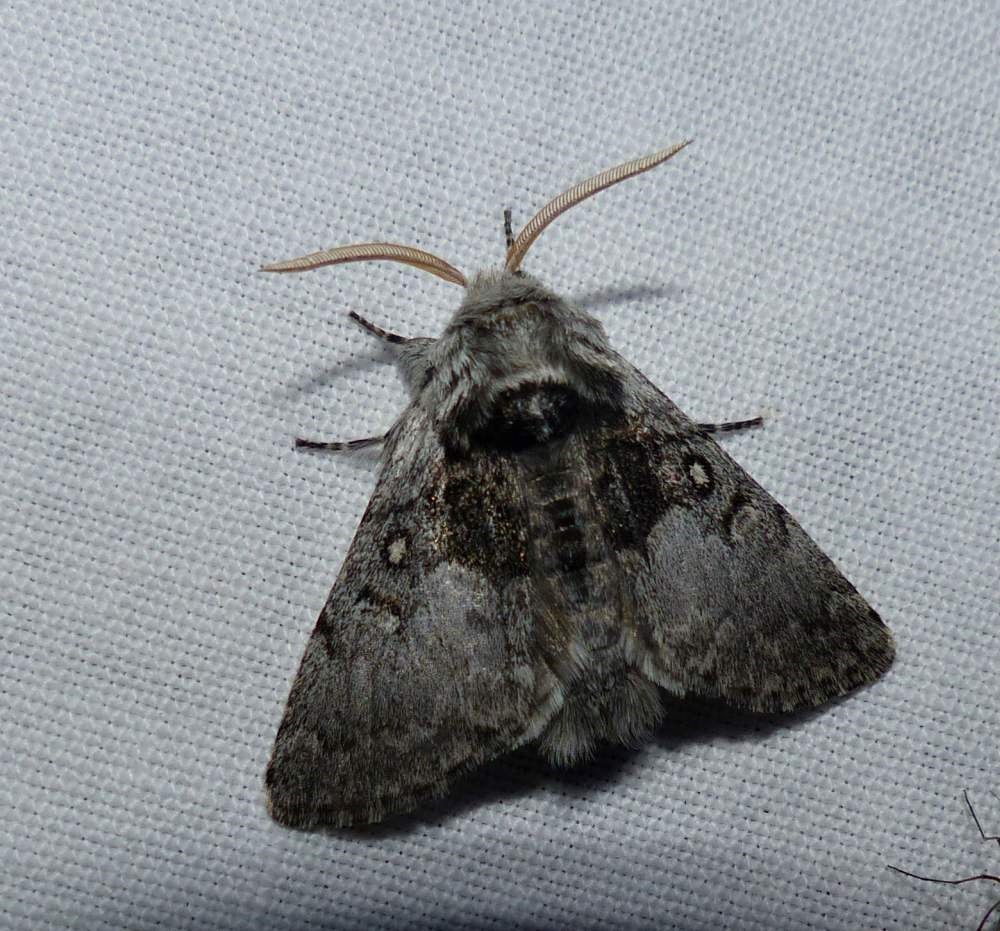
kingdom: Animalia
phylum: Arthropoda
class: Insecta
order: Lepidoptera
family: Noctuidae
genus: Colocasia
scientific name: Colocasia flavicornis
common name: Saddled yellowhorn
